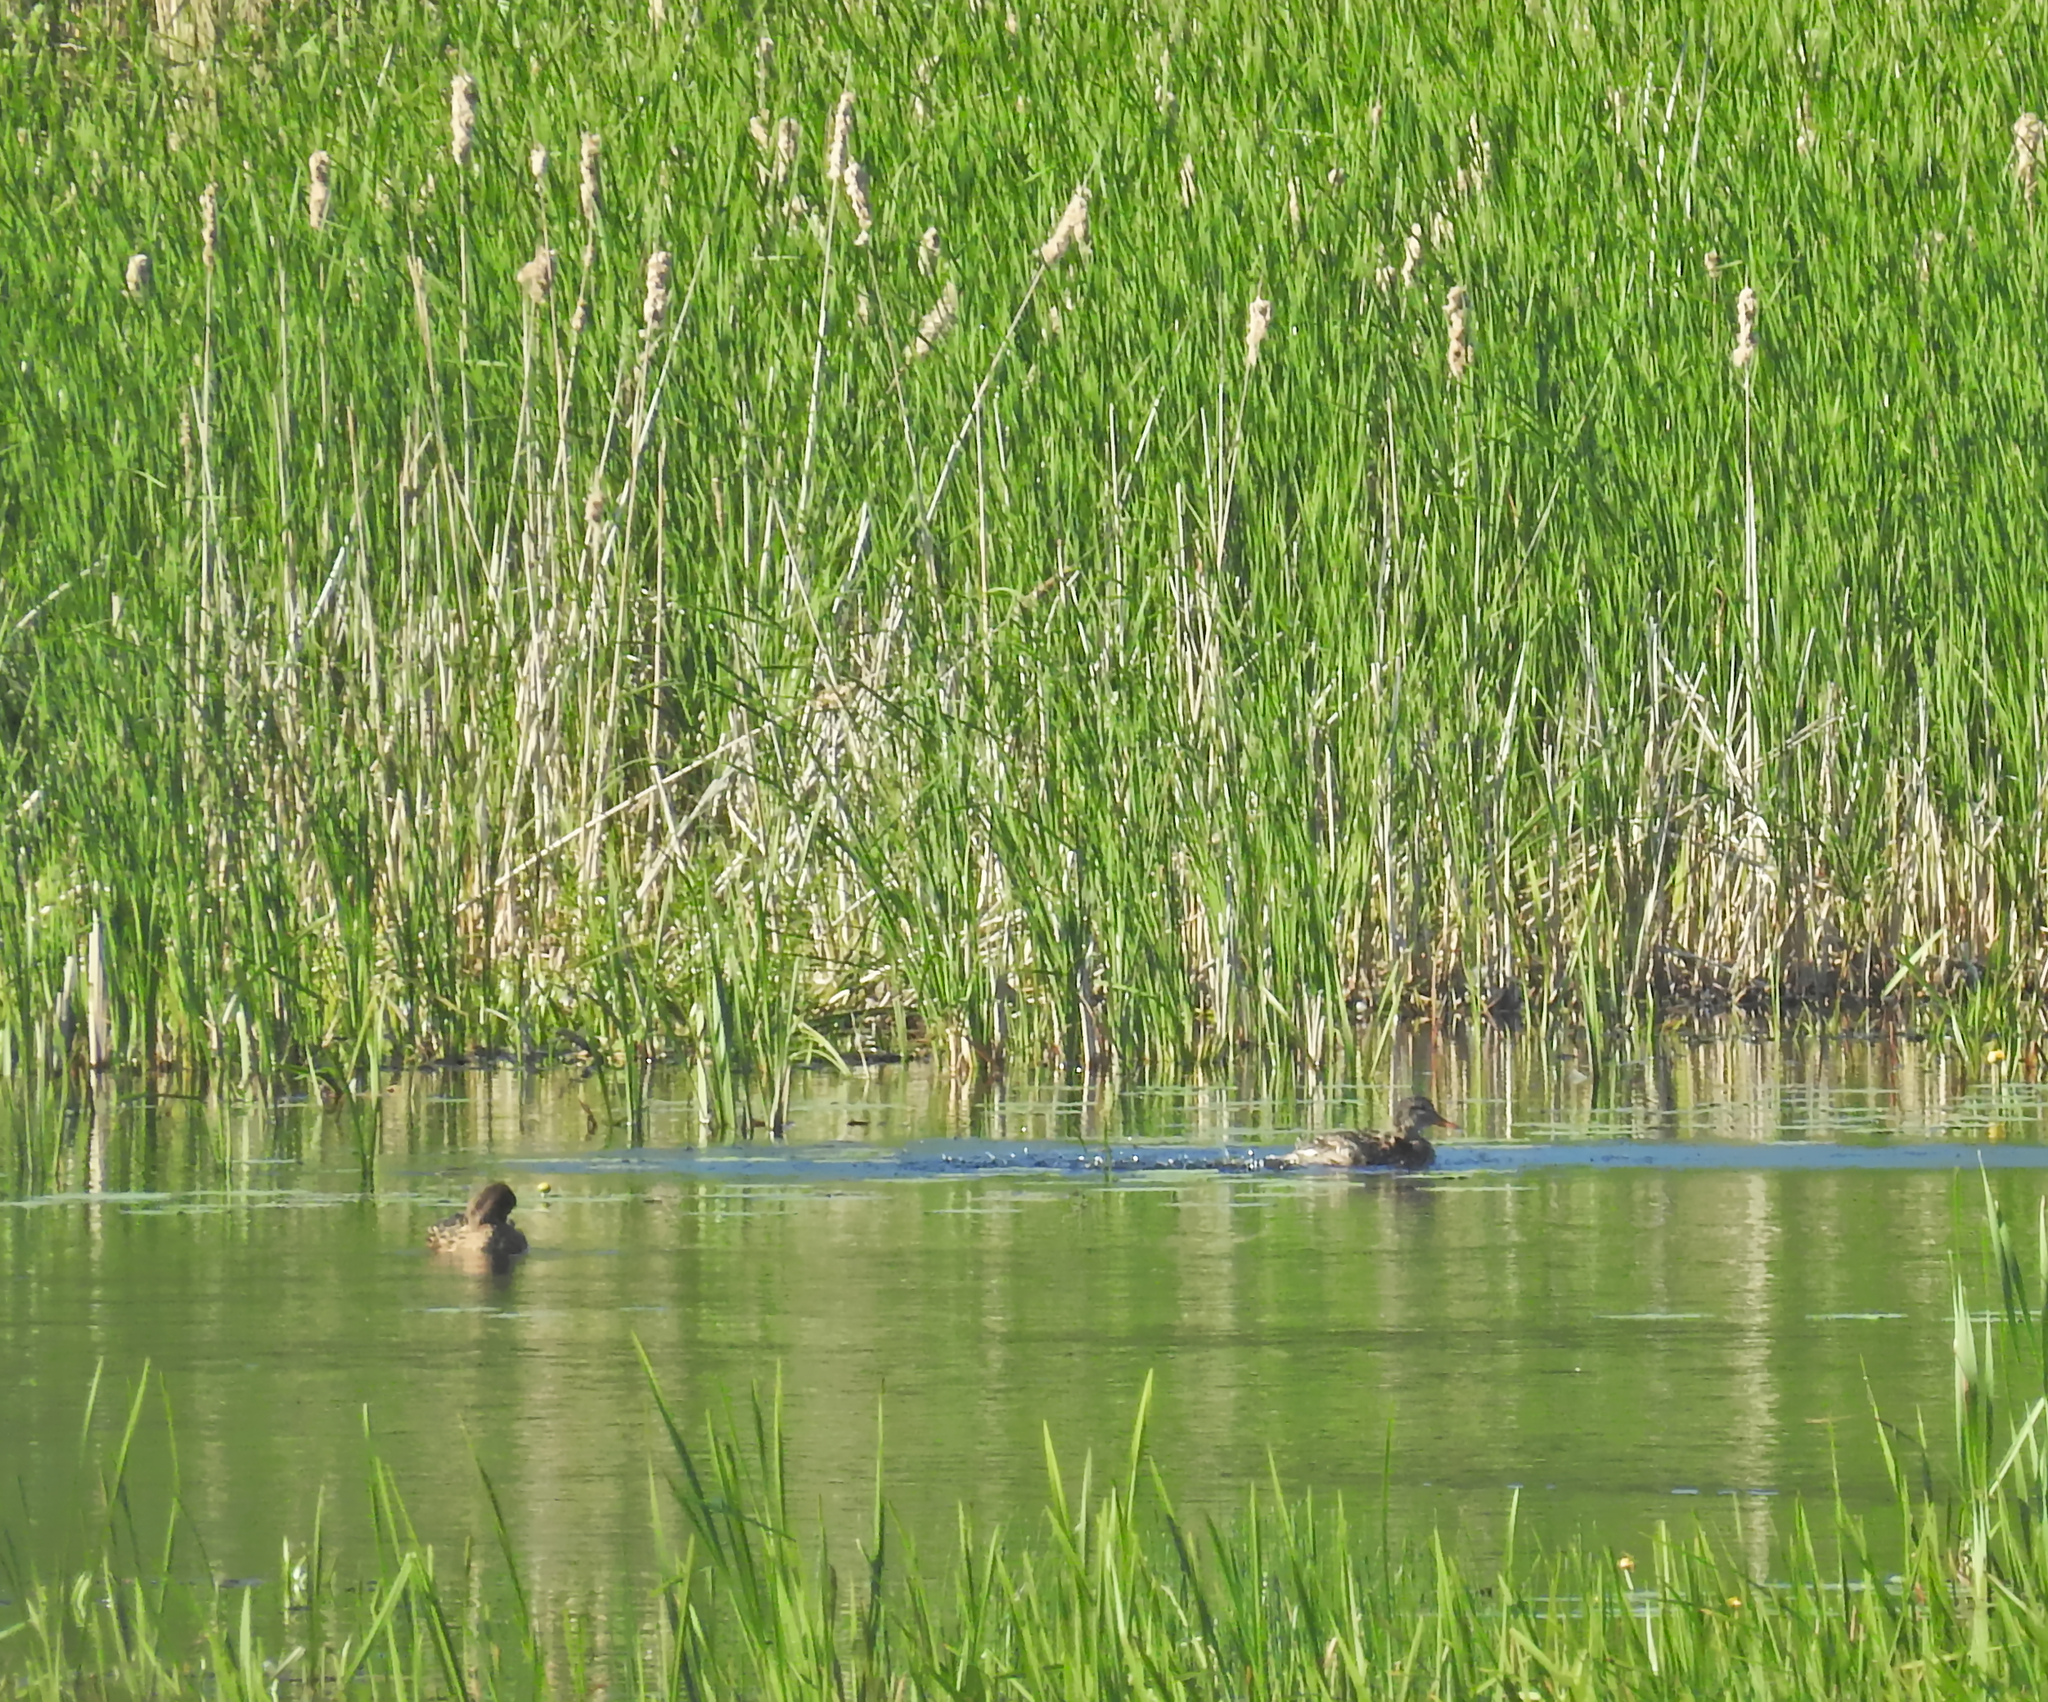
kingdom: Animalia
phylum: Chordata
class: Aves
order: Anseriformes
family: Anatidae
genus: Mareca
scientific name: Mareca strepera
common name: Gadwall
